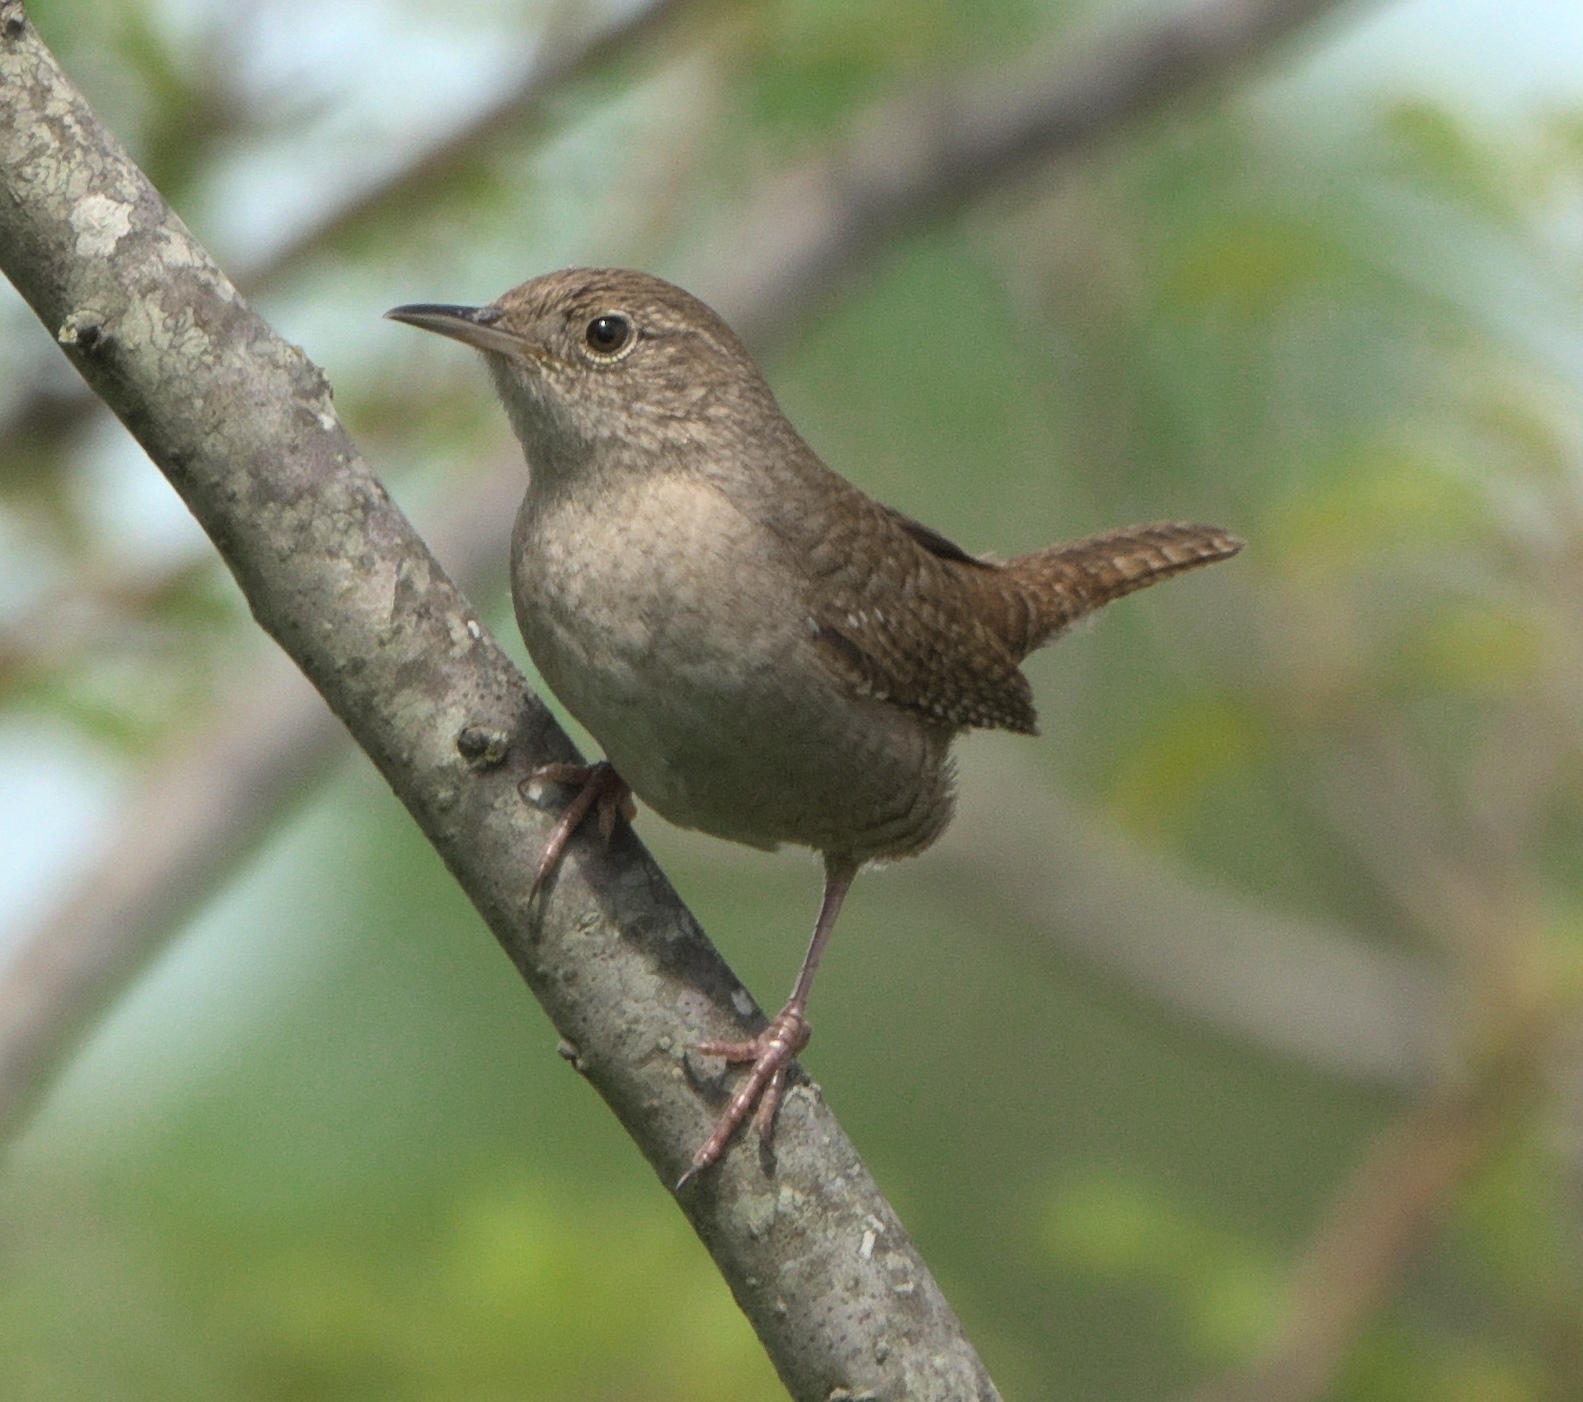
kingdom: Animalia
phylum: Chordata
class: Aves
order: Passeriformes
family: Troglodytidae
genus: Troglodytes
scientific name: Troglodytes aedon
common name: House wren
